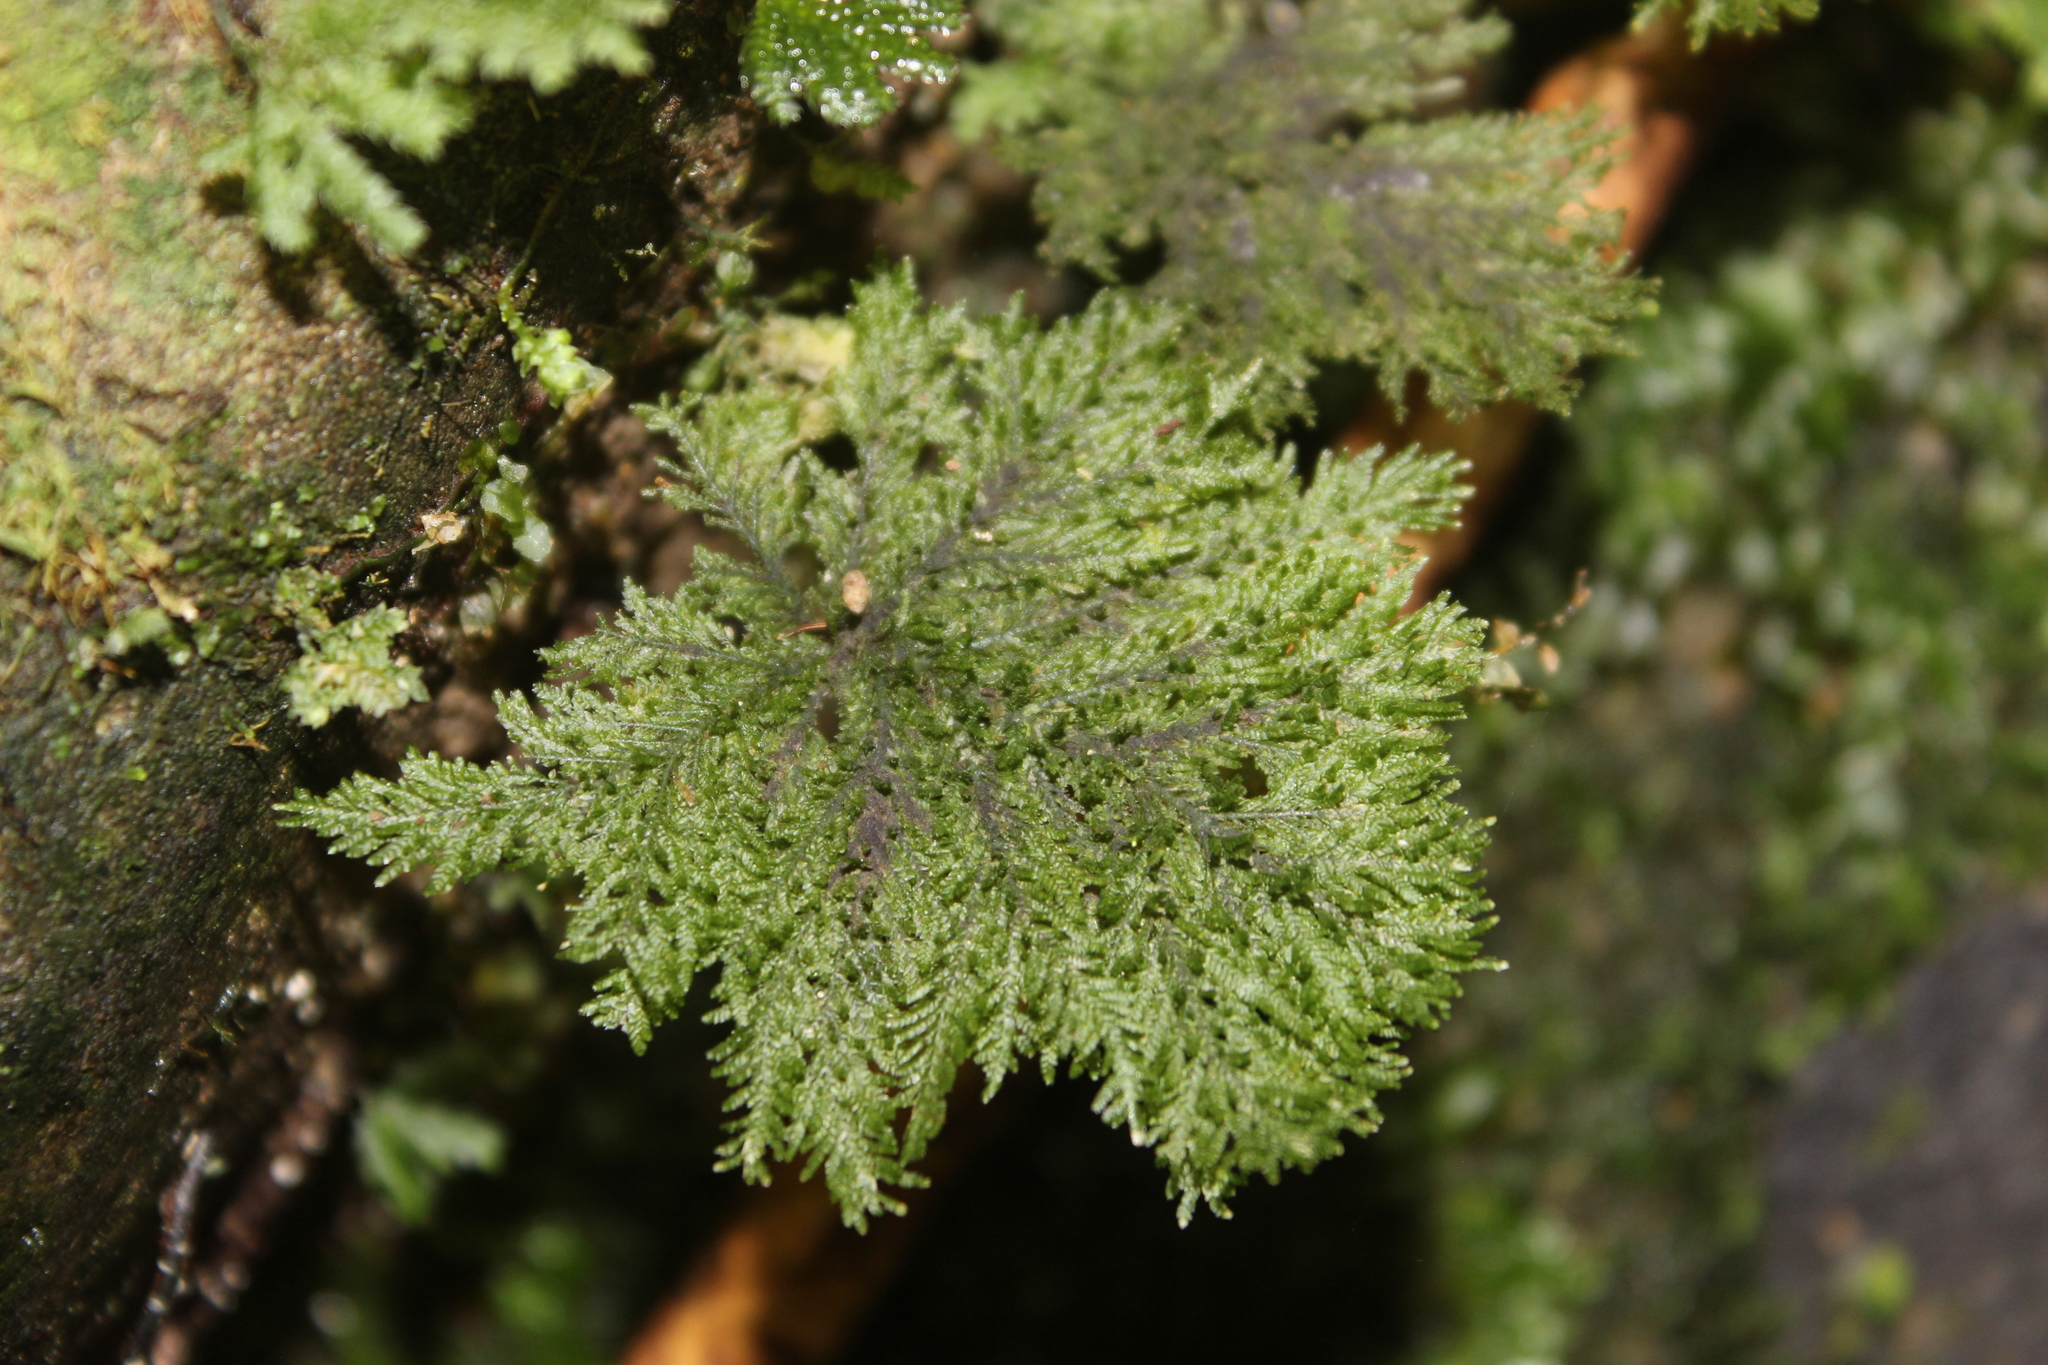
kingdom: Plantae
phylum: Bryophyta
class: Bryopsida
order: Hypopterygiales
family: Hypopterygiaceae
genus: Dendrohypopterygium
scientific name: Dendrohypopterygium filiculiforme
